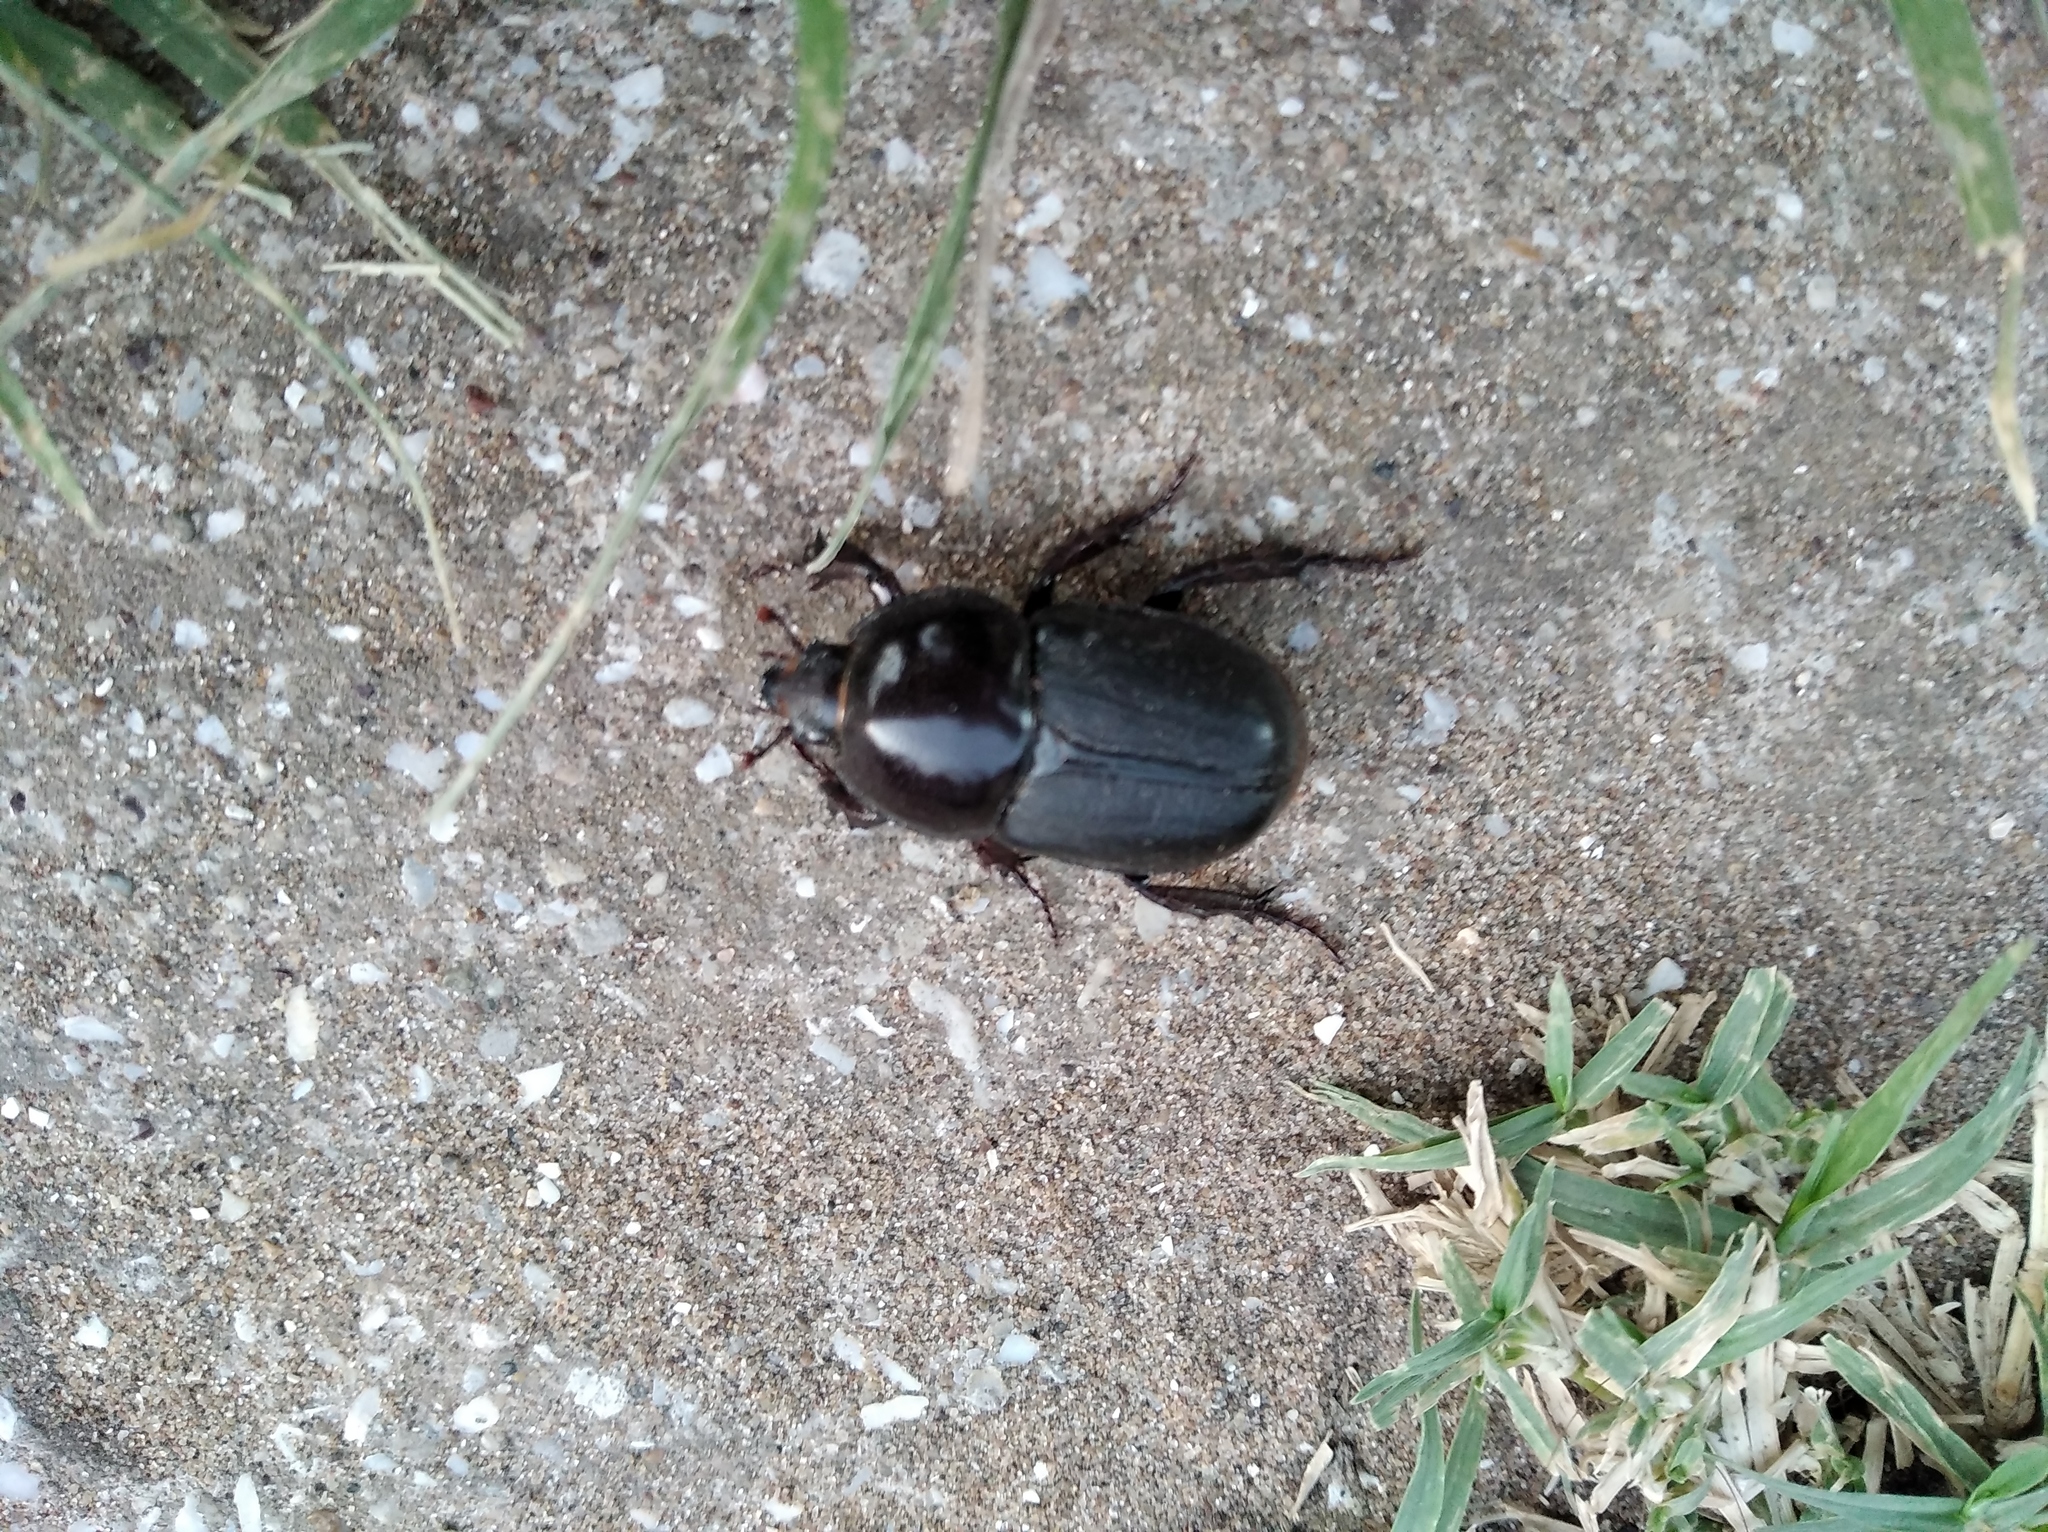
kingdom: Animalia
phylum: Arthropoda
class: Insecta
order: Coleoptera
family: Scarabaeidae
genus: Diloboderus
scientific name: Diloboderus abderus
